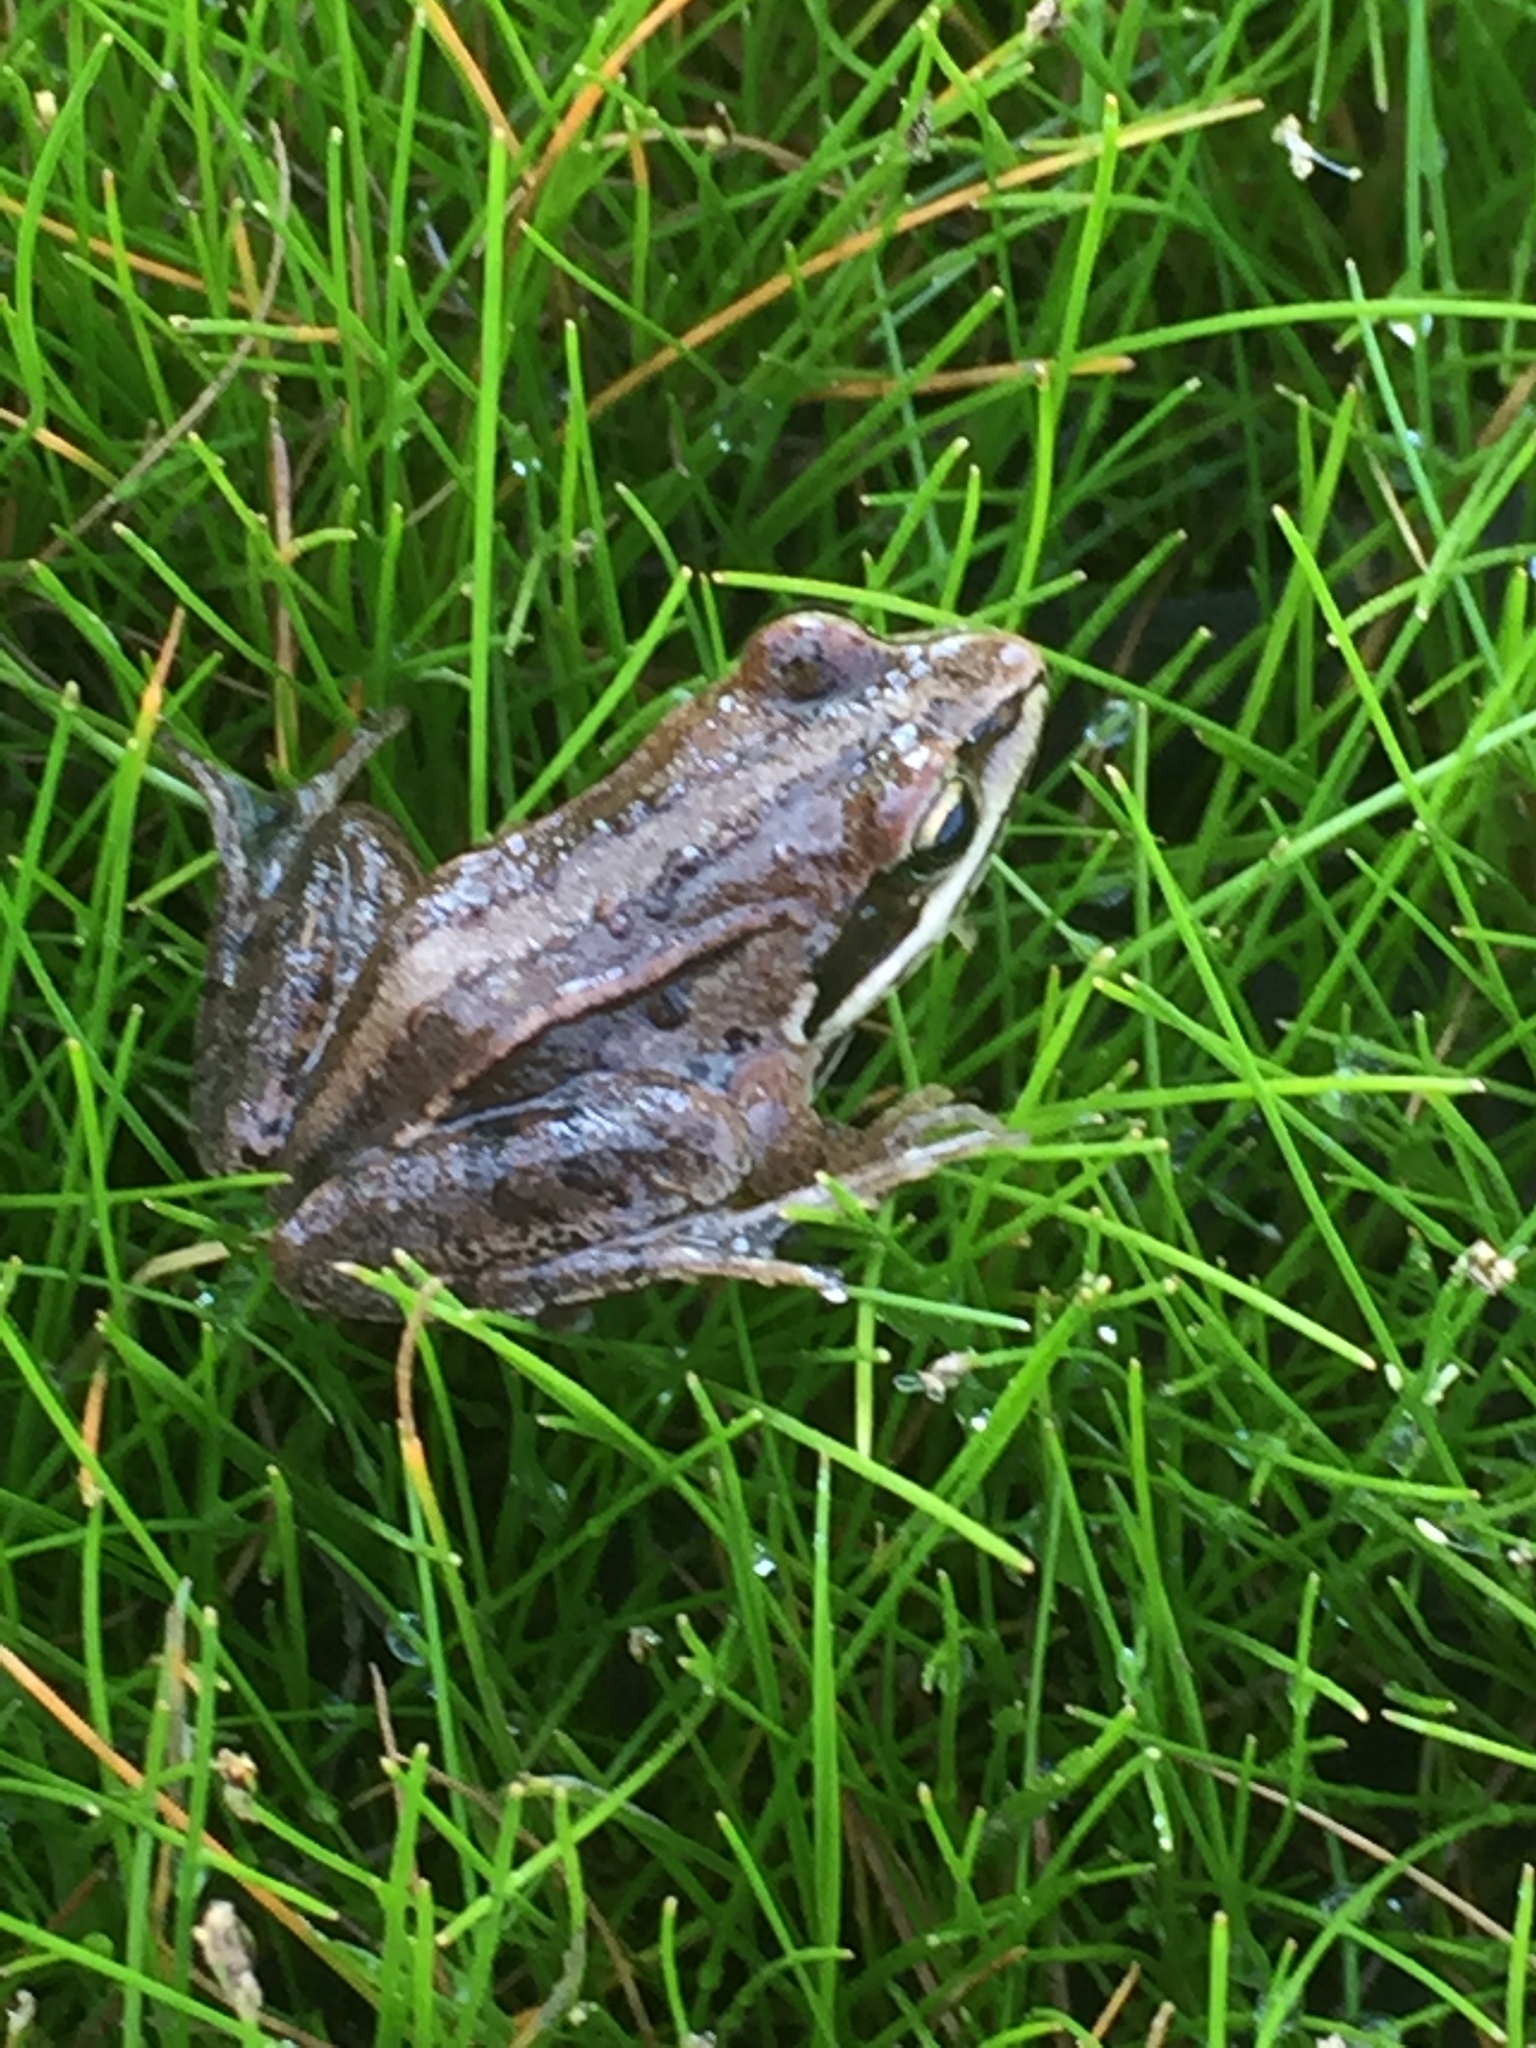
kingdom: Animalia
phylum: Chordata
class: Amphibia
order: Anura
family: Ranidae
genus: Rana
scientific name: Rana arvalis
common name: Moor frog
